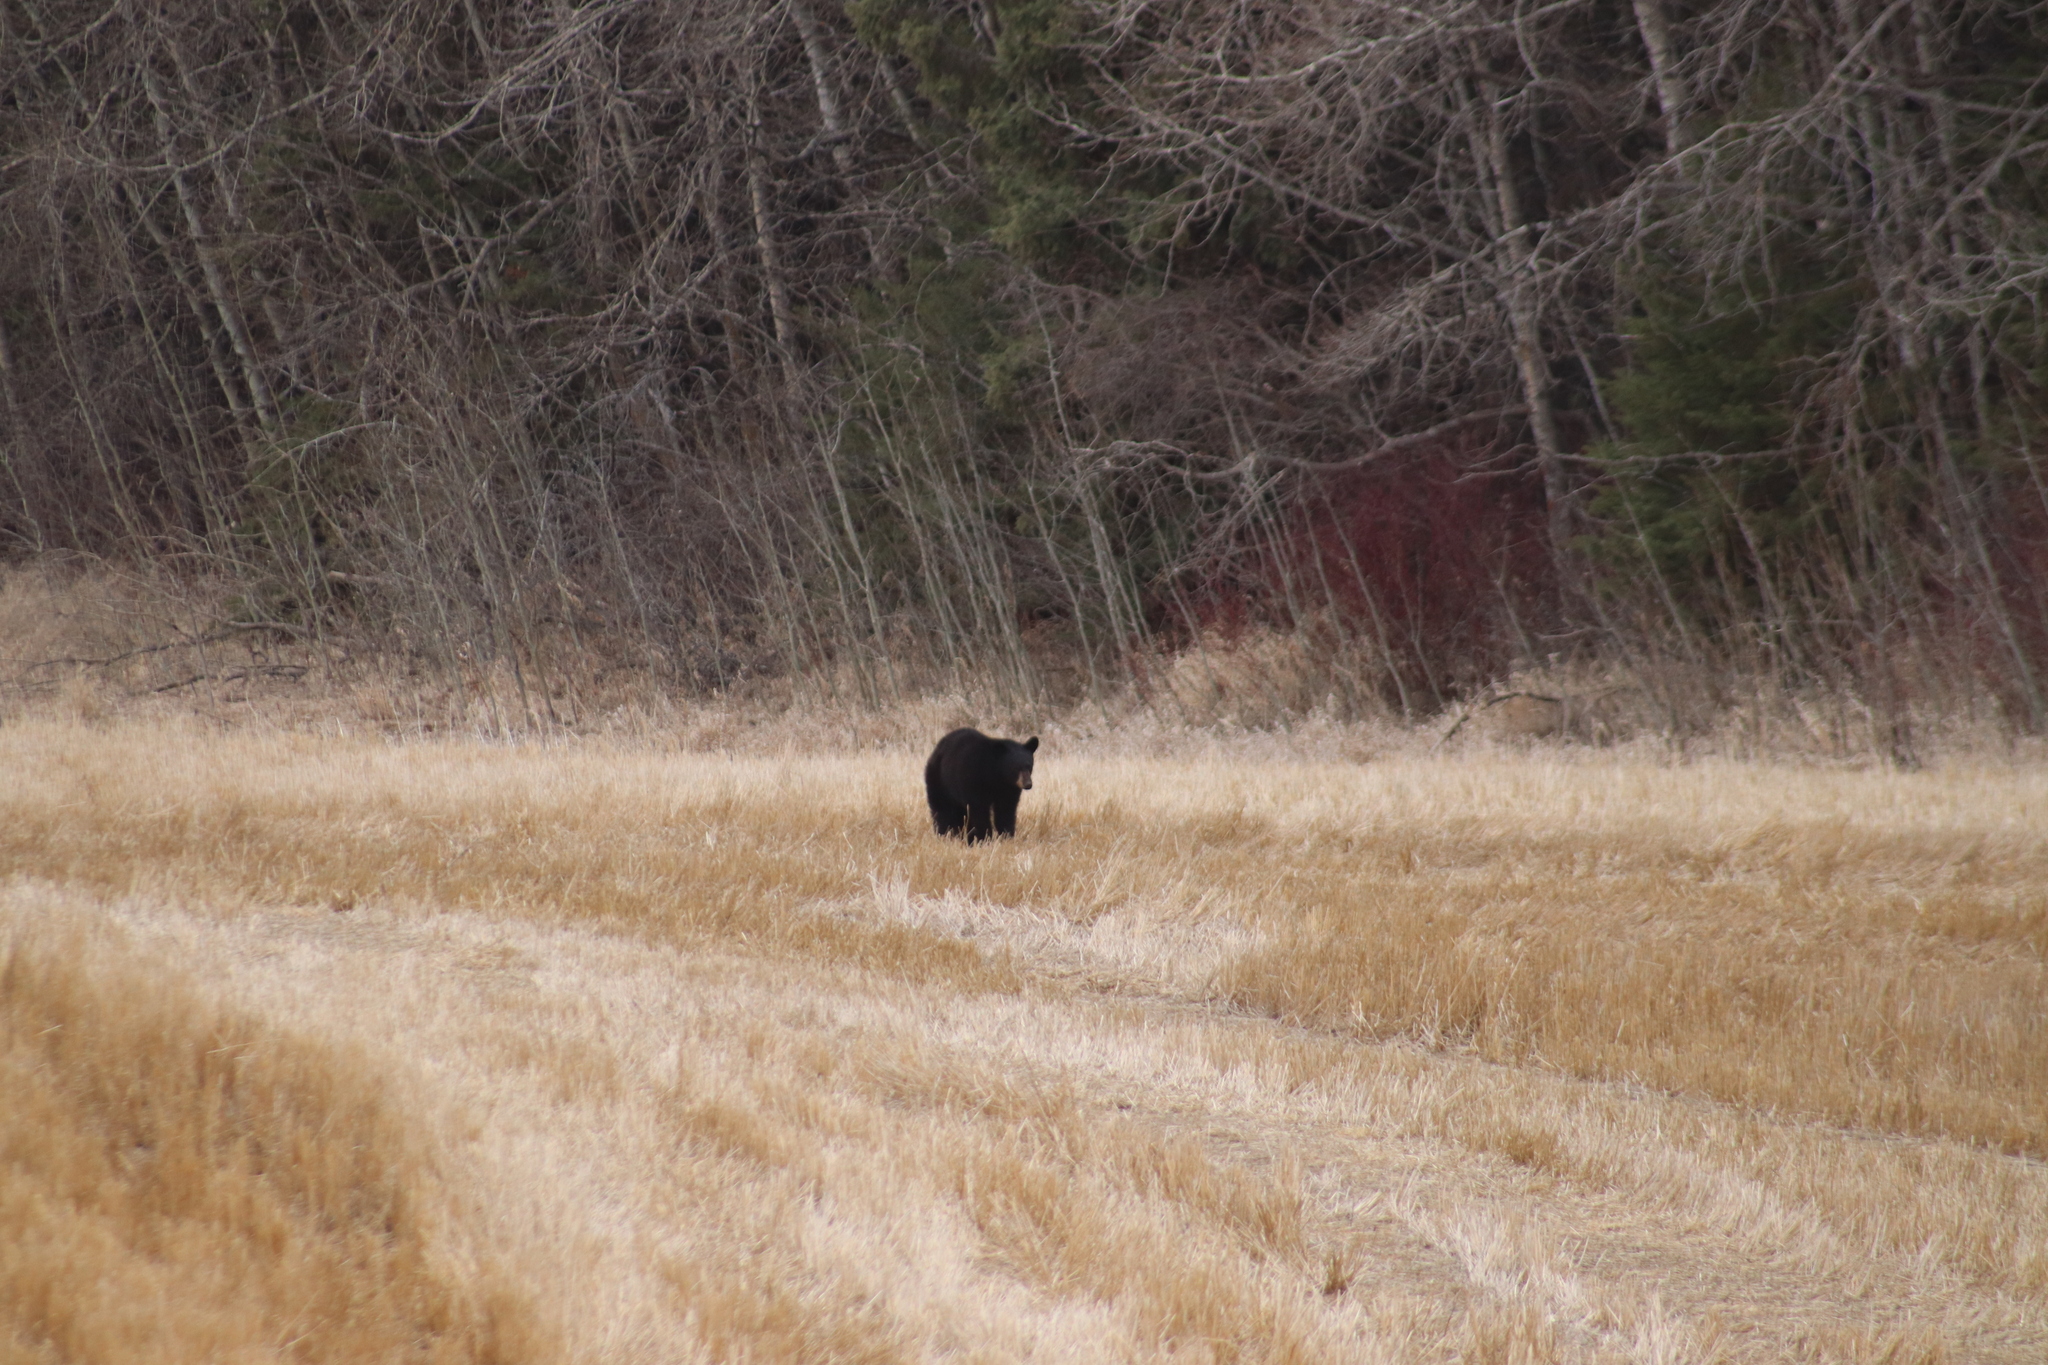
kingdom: Animalia
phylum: Chordata
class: Mammalia
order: Carnivora
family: Ursidae
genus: Ursus
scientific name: Ursus americanus
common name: American black bear
